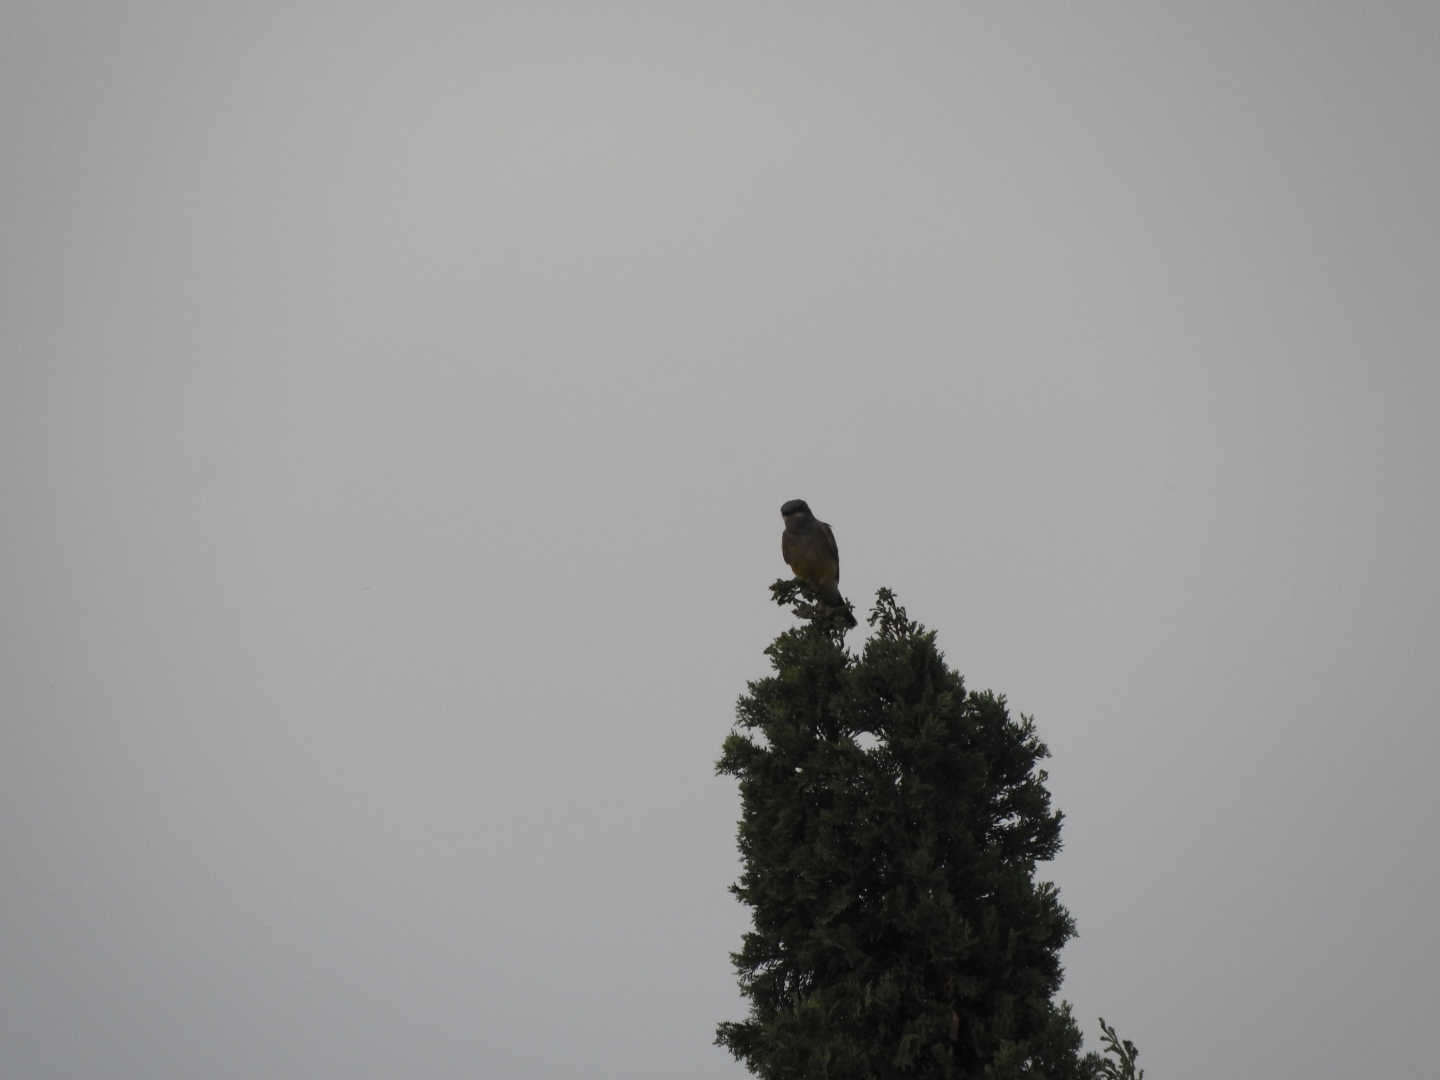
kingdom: Animalia
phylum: Chordata
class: Aves
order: Passeriformes
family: Tyrannidae
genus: Tyrannus
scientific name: Tyrannus vociferans
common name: Cassin's kingbird
